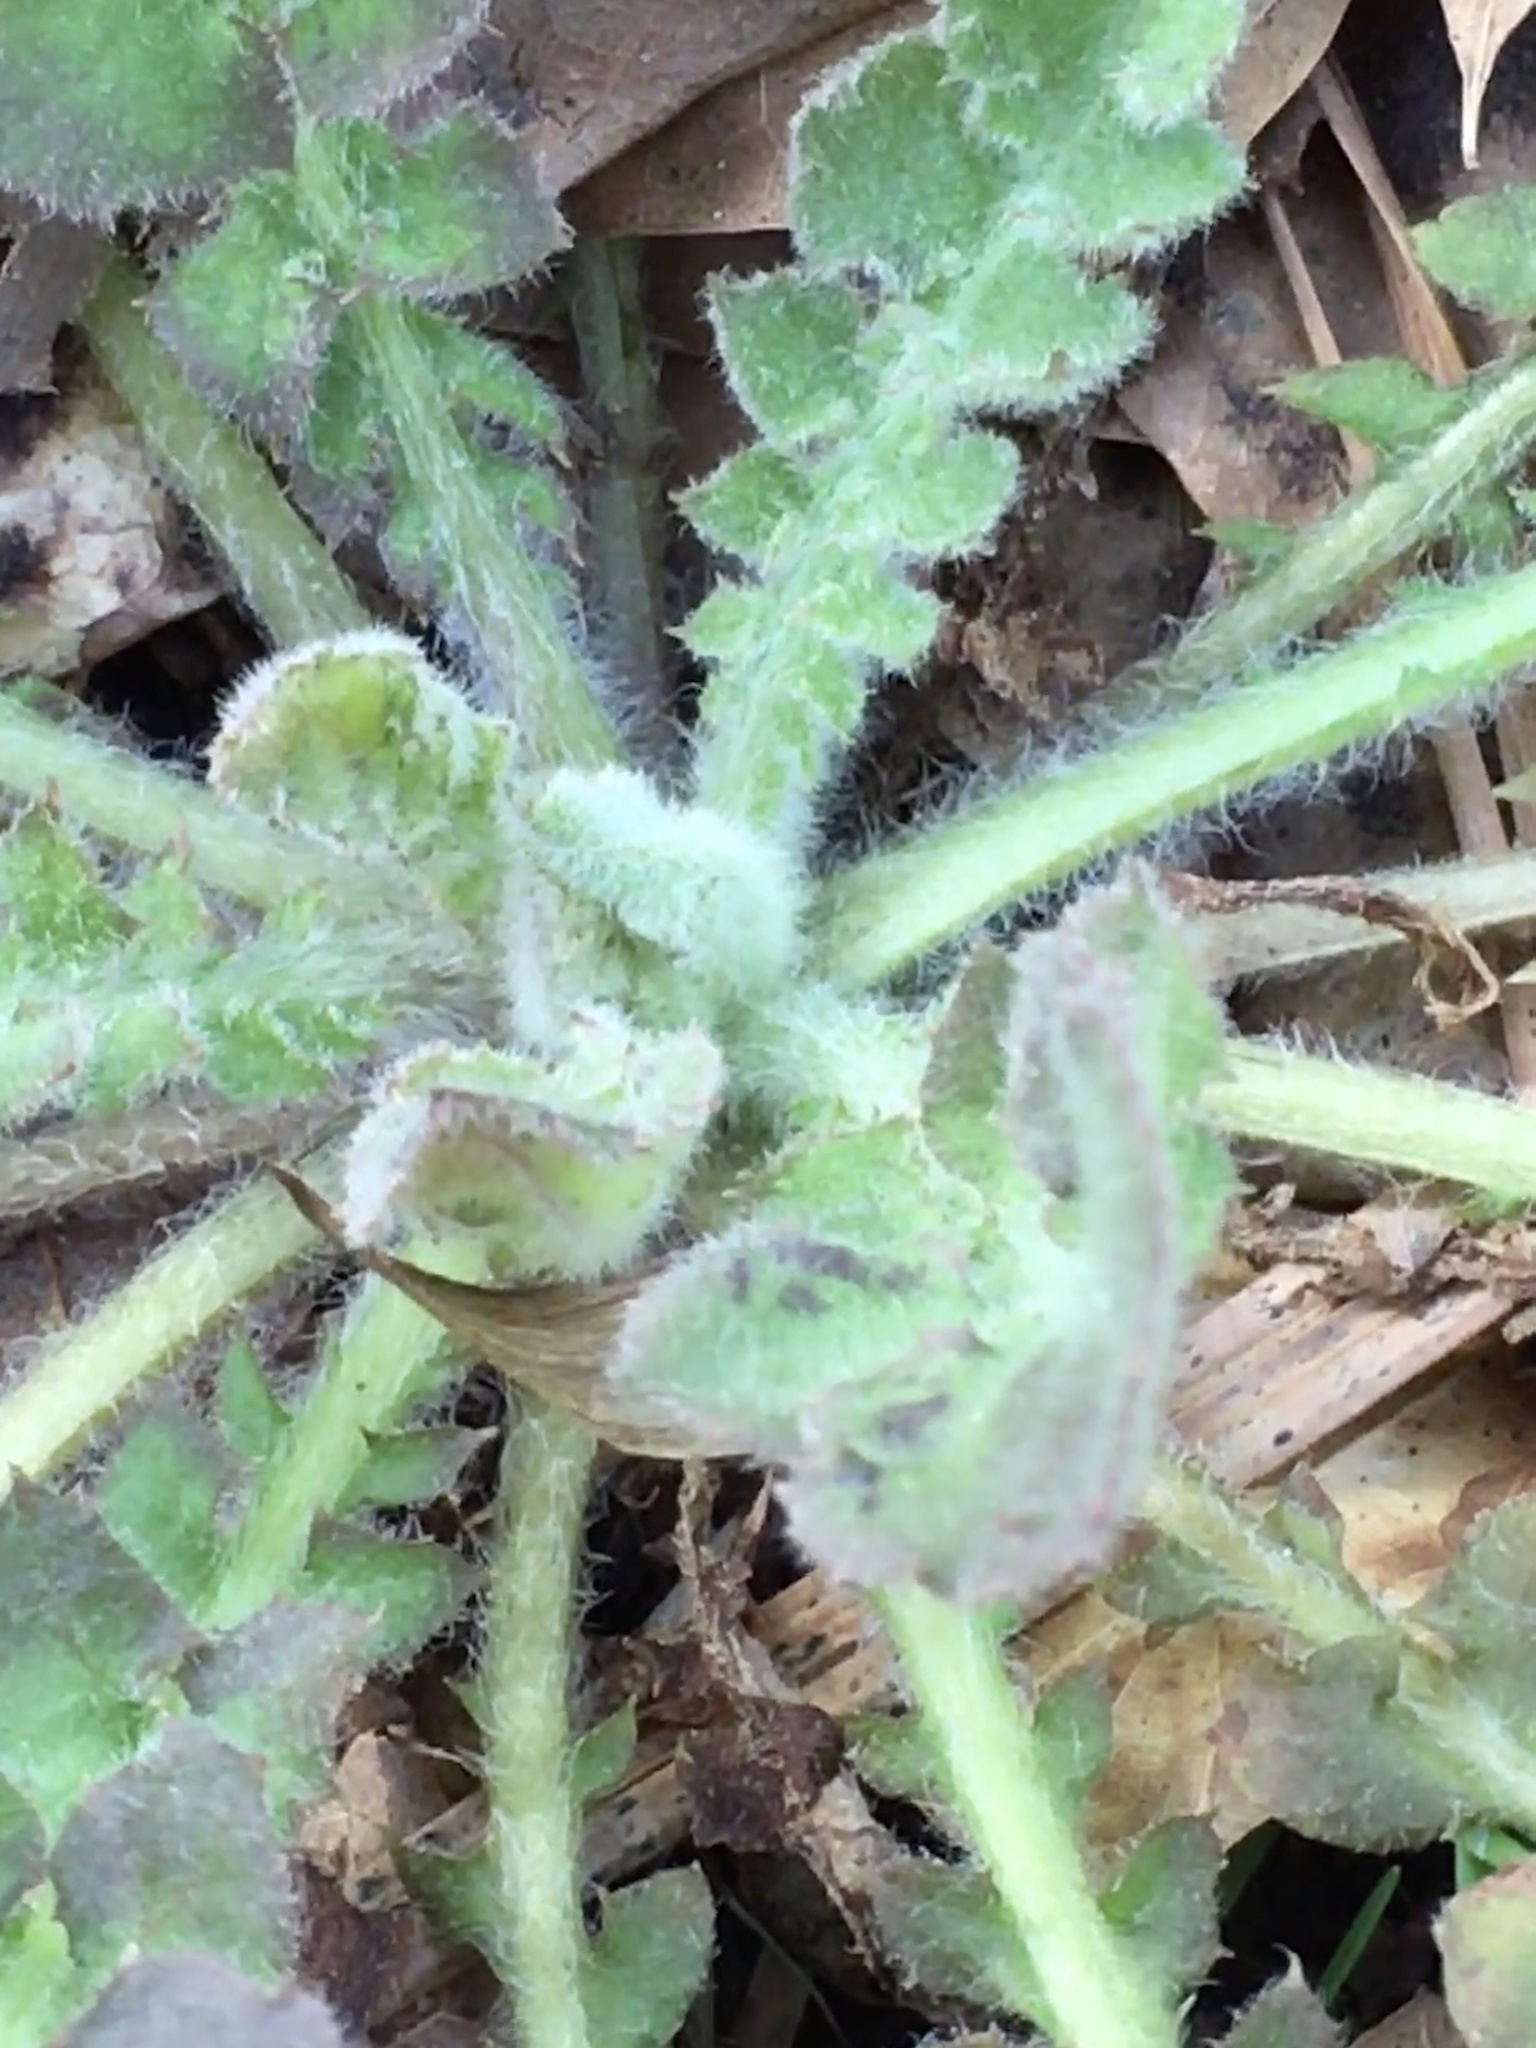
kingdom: Plantae
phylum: Tracheophyta
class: Magnoliopsida
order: Asterales
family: Asteraceae
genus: Youngia
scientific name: Youngia japonica
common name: Oriental false hawksbeard
